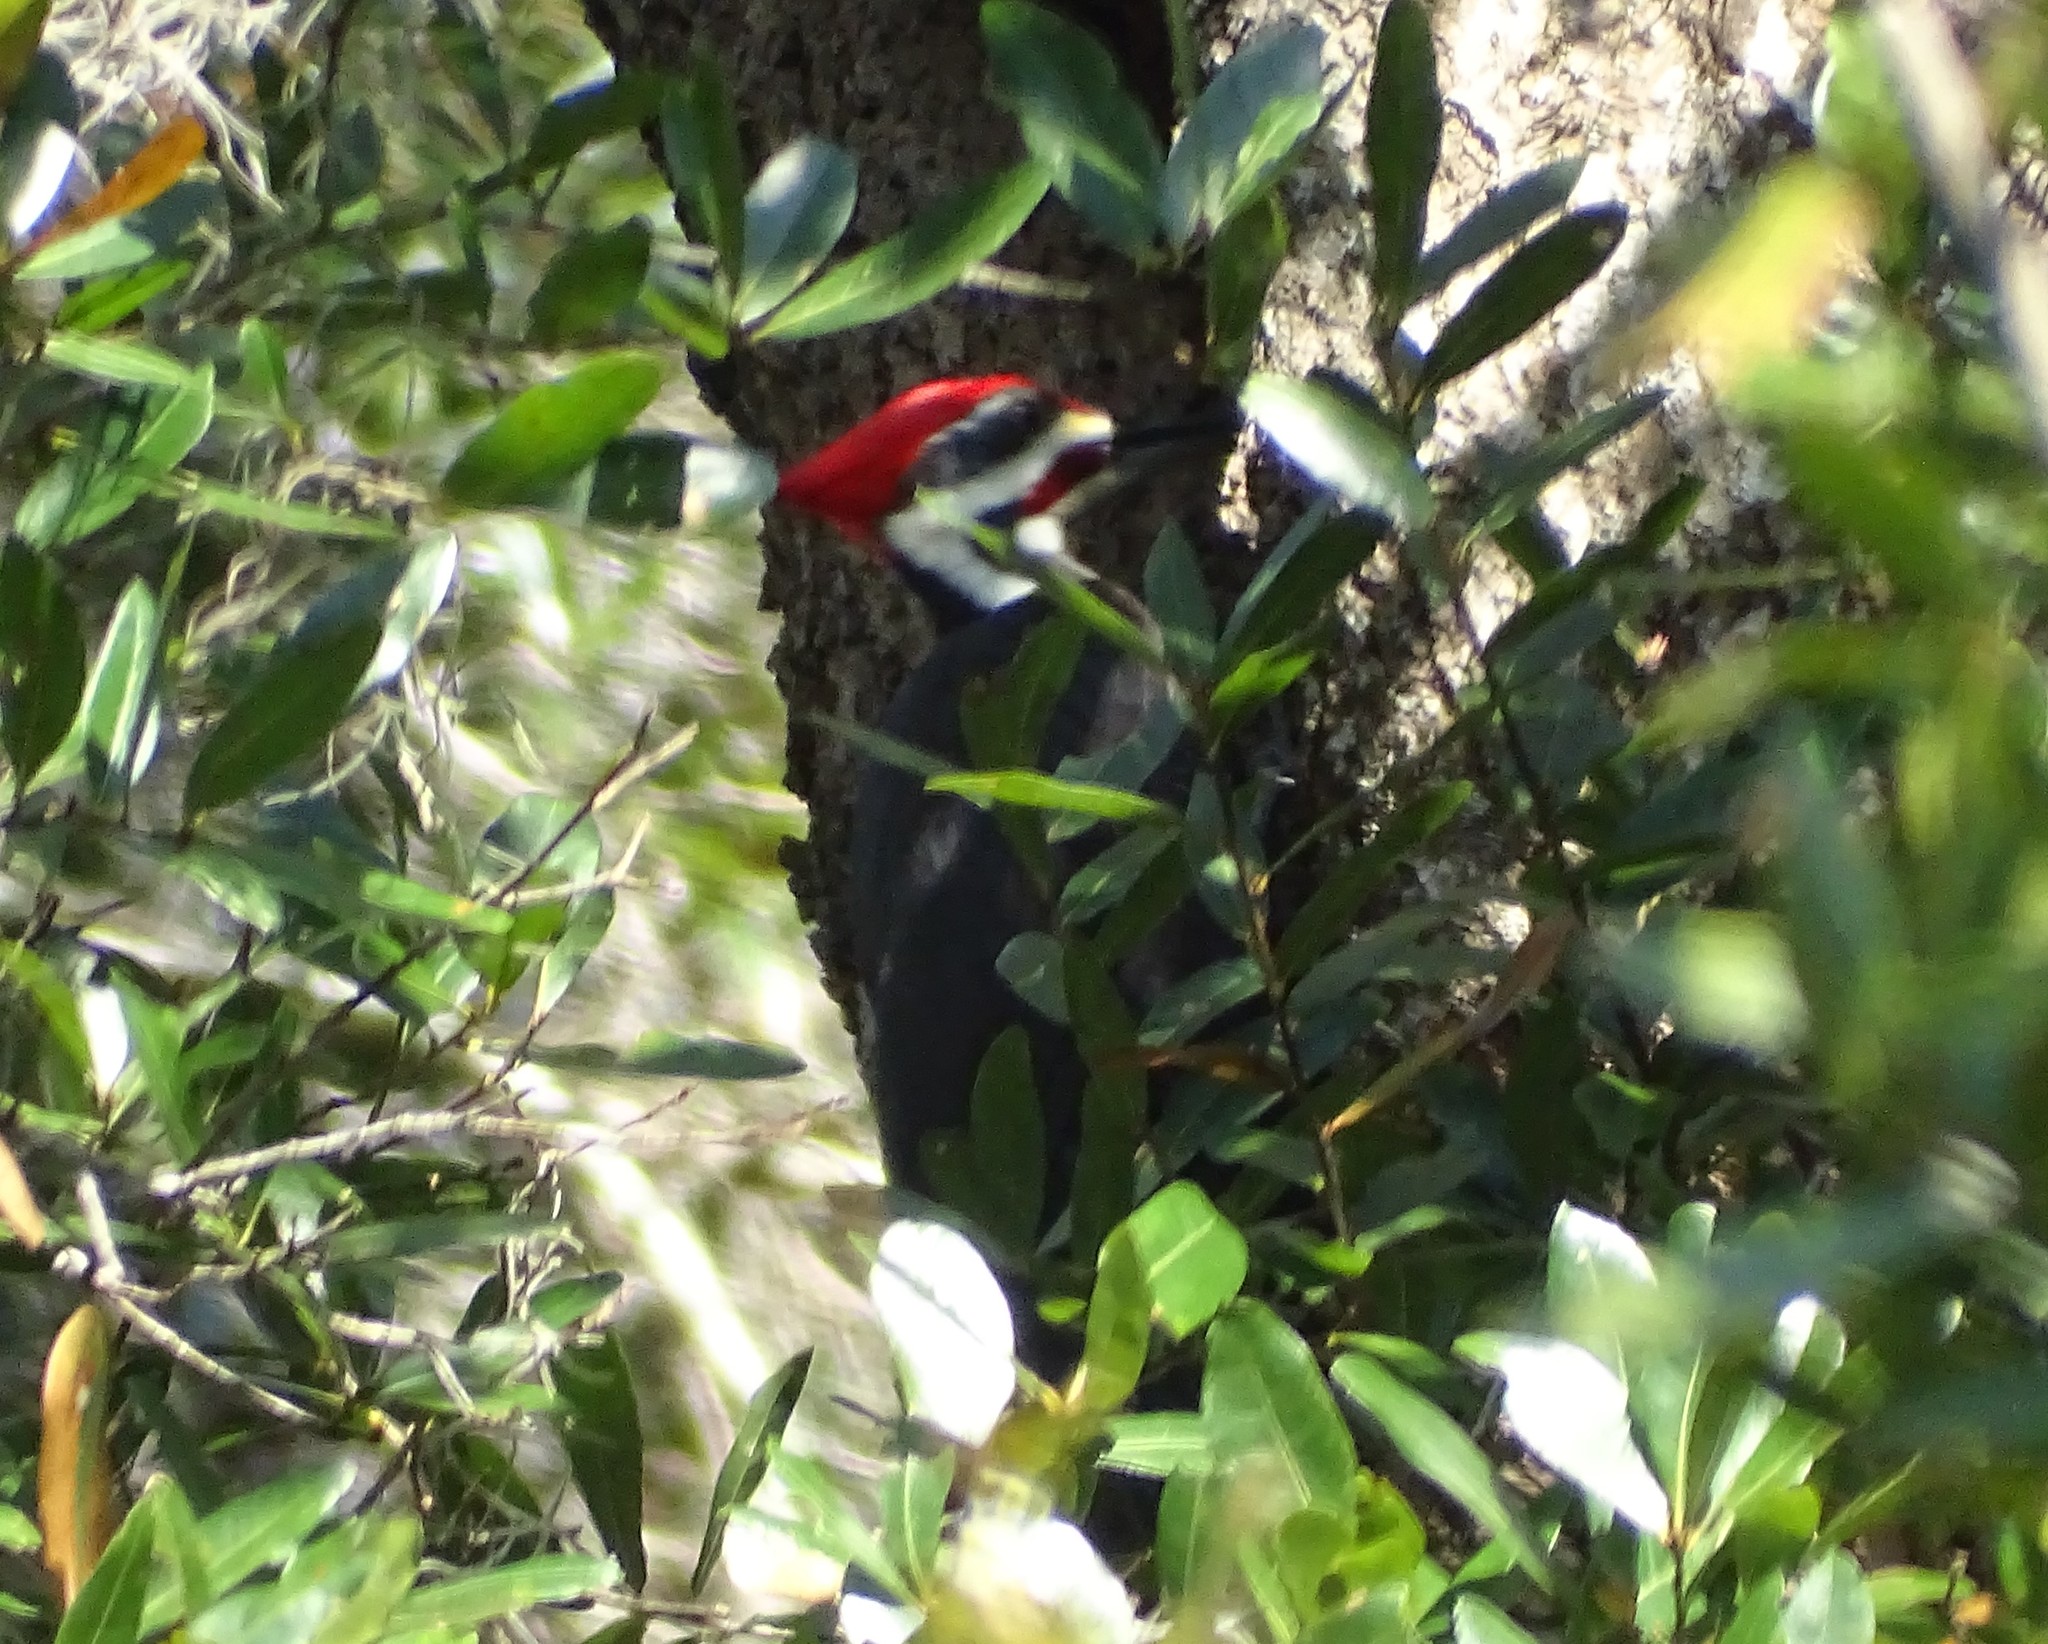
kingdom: Animalia
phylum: Chordata
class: Aves
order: Piciformes
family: Picidae
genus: Dryocopus
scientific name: Dryocopus pileatus
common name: Pileated woodpecker
